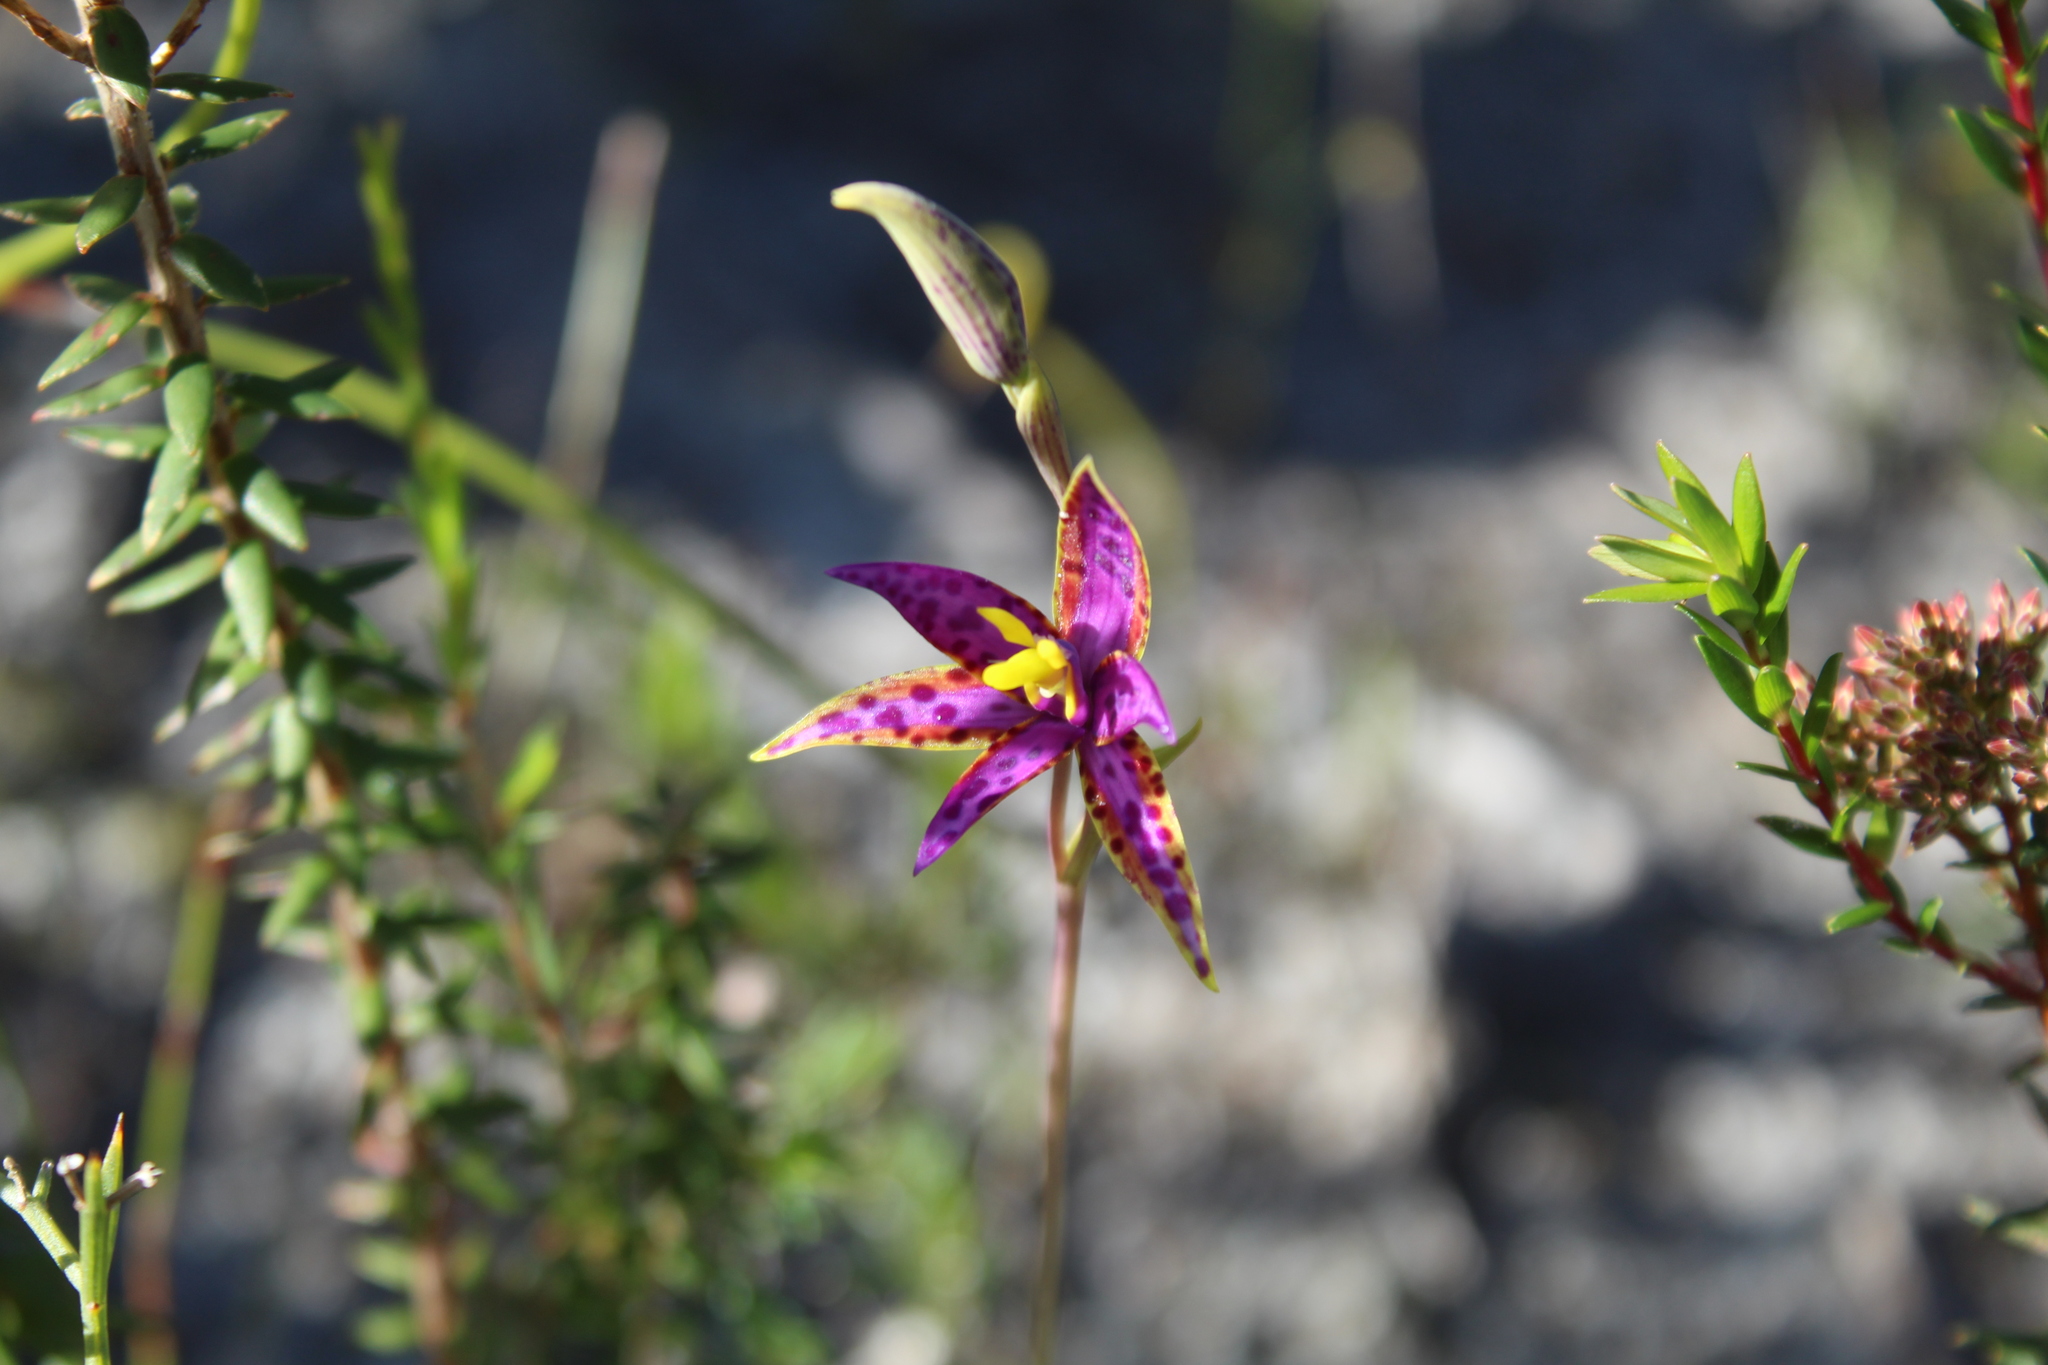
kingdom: Plantae
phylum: Tracheophyta
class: Liliopsida
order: Asparagales
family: Orchidaceae
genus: Thelymitra
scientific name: Thelymitra porphyrosticta
